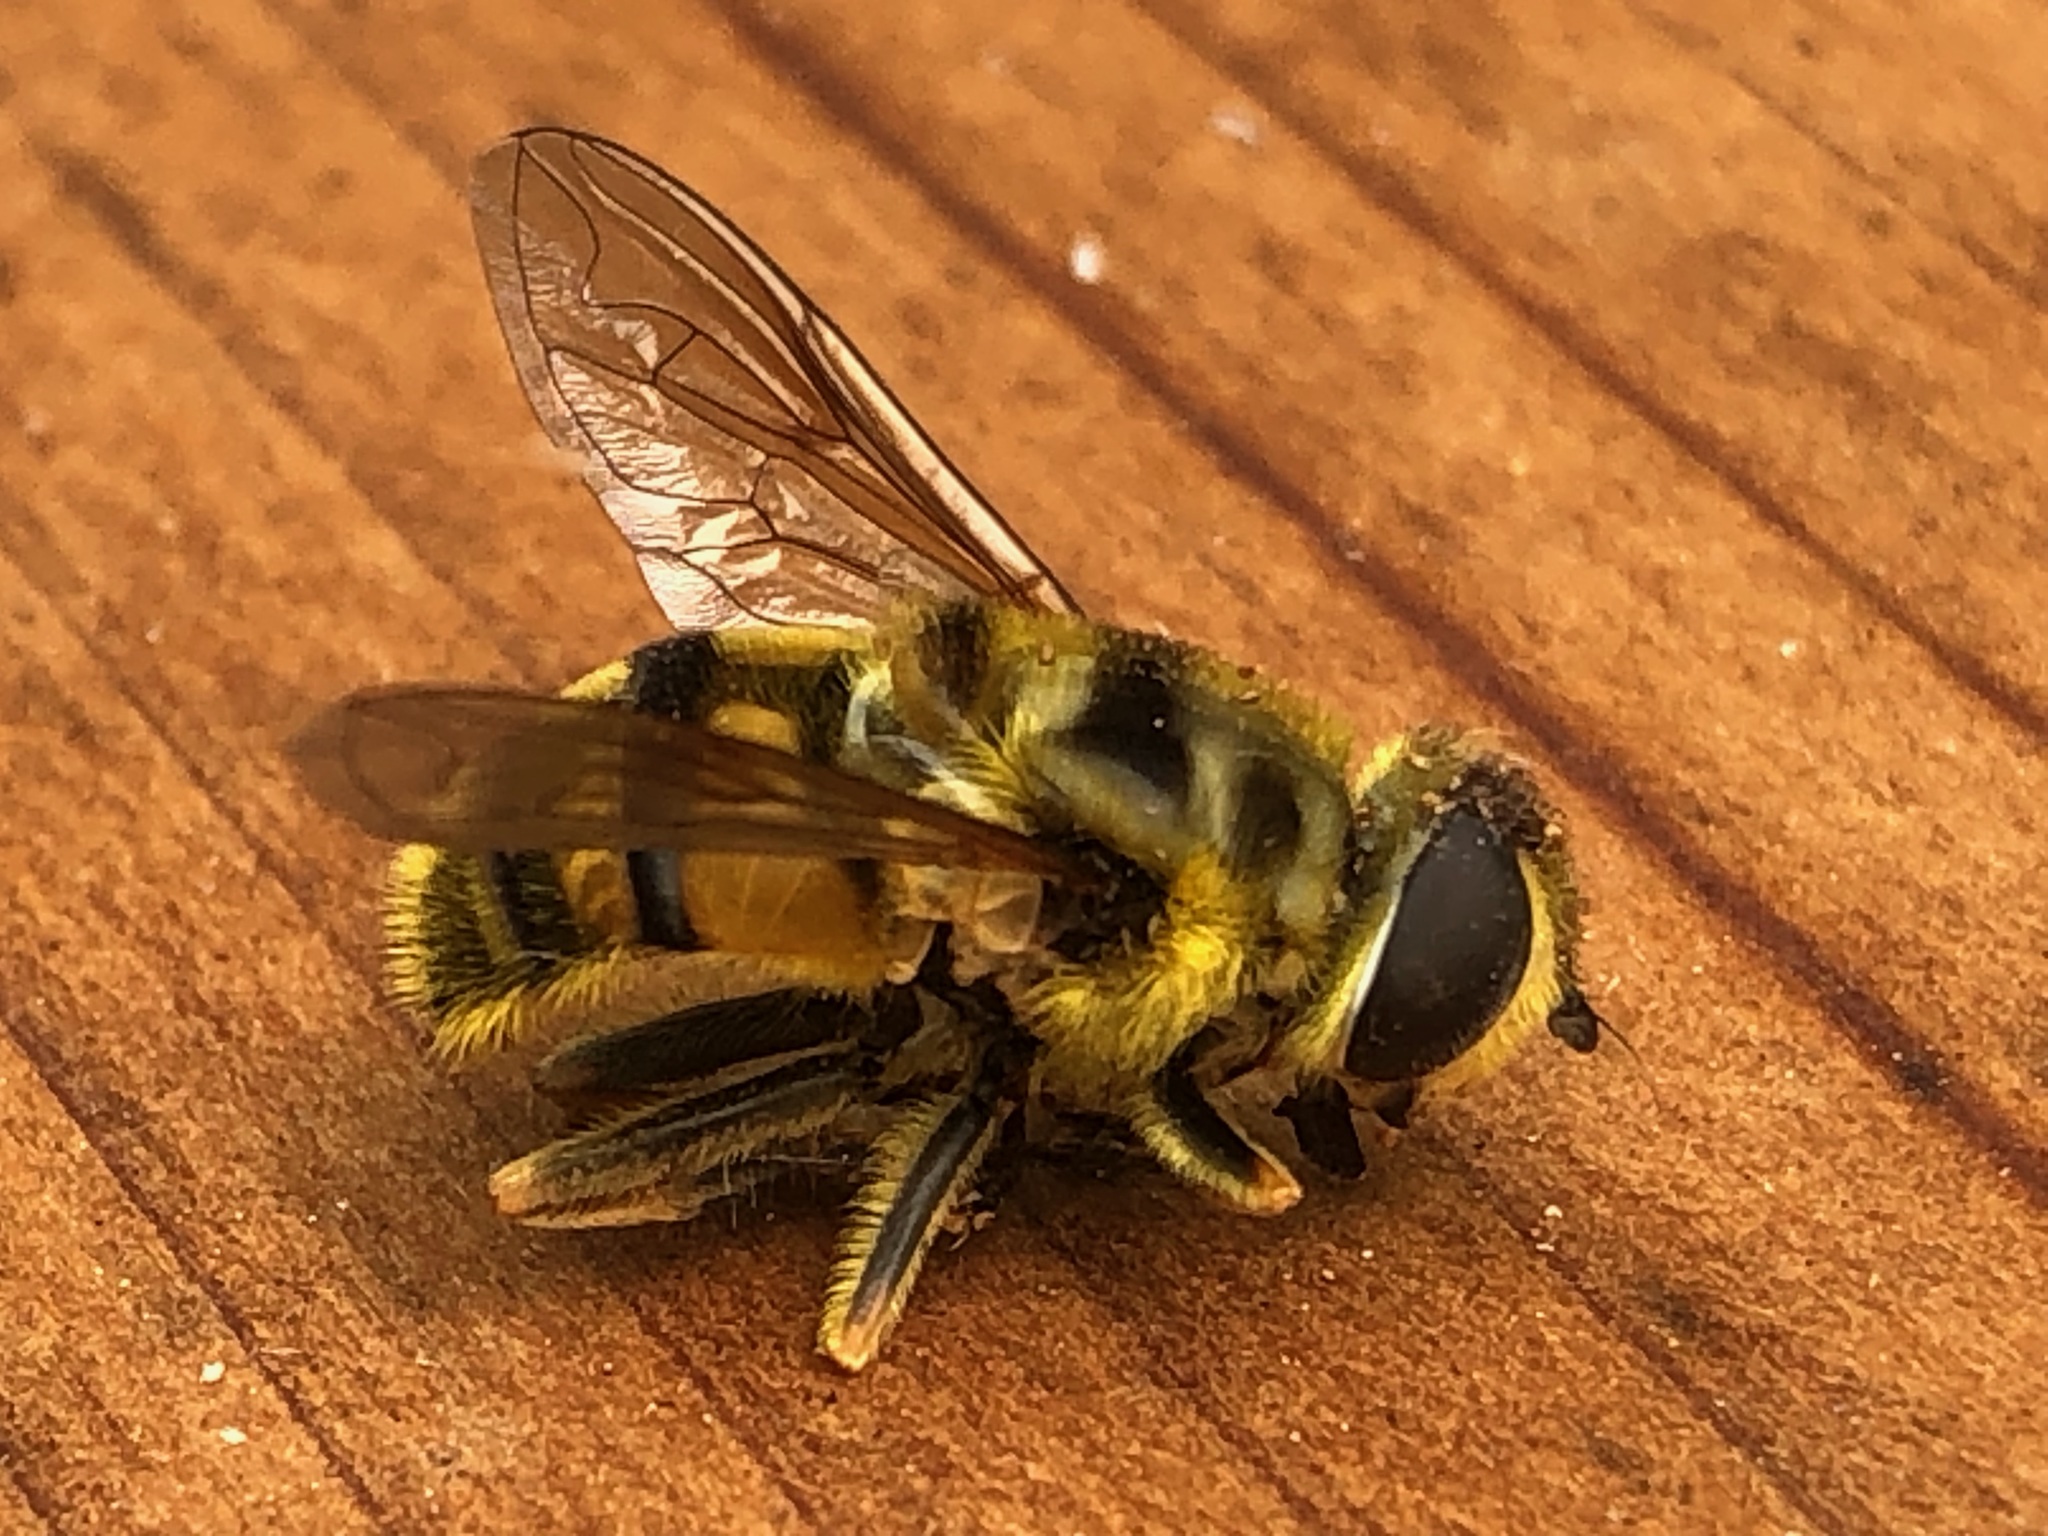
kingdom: Animalia
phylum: Arthropoda
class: Insecta
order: Diptera
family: Syrphidae
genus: Myathropa
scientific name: Myathropa florea
